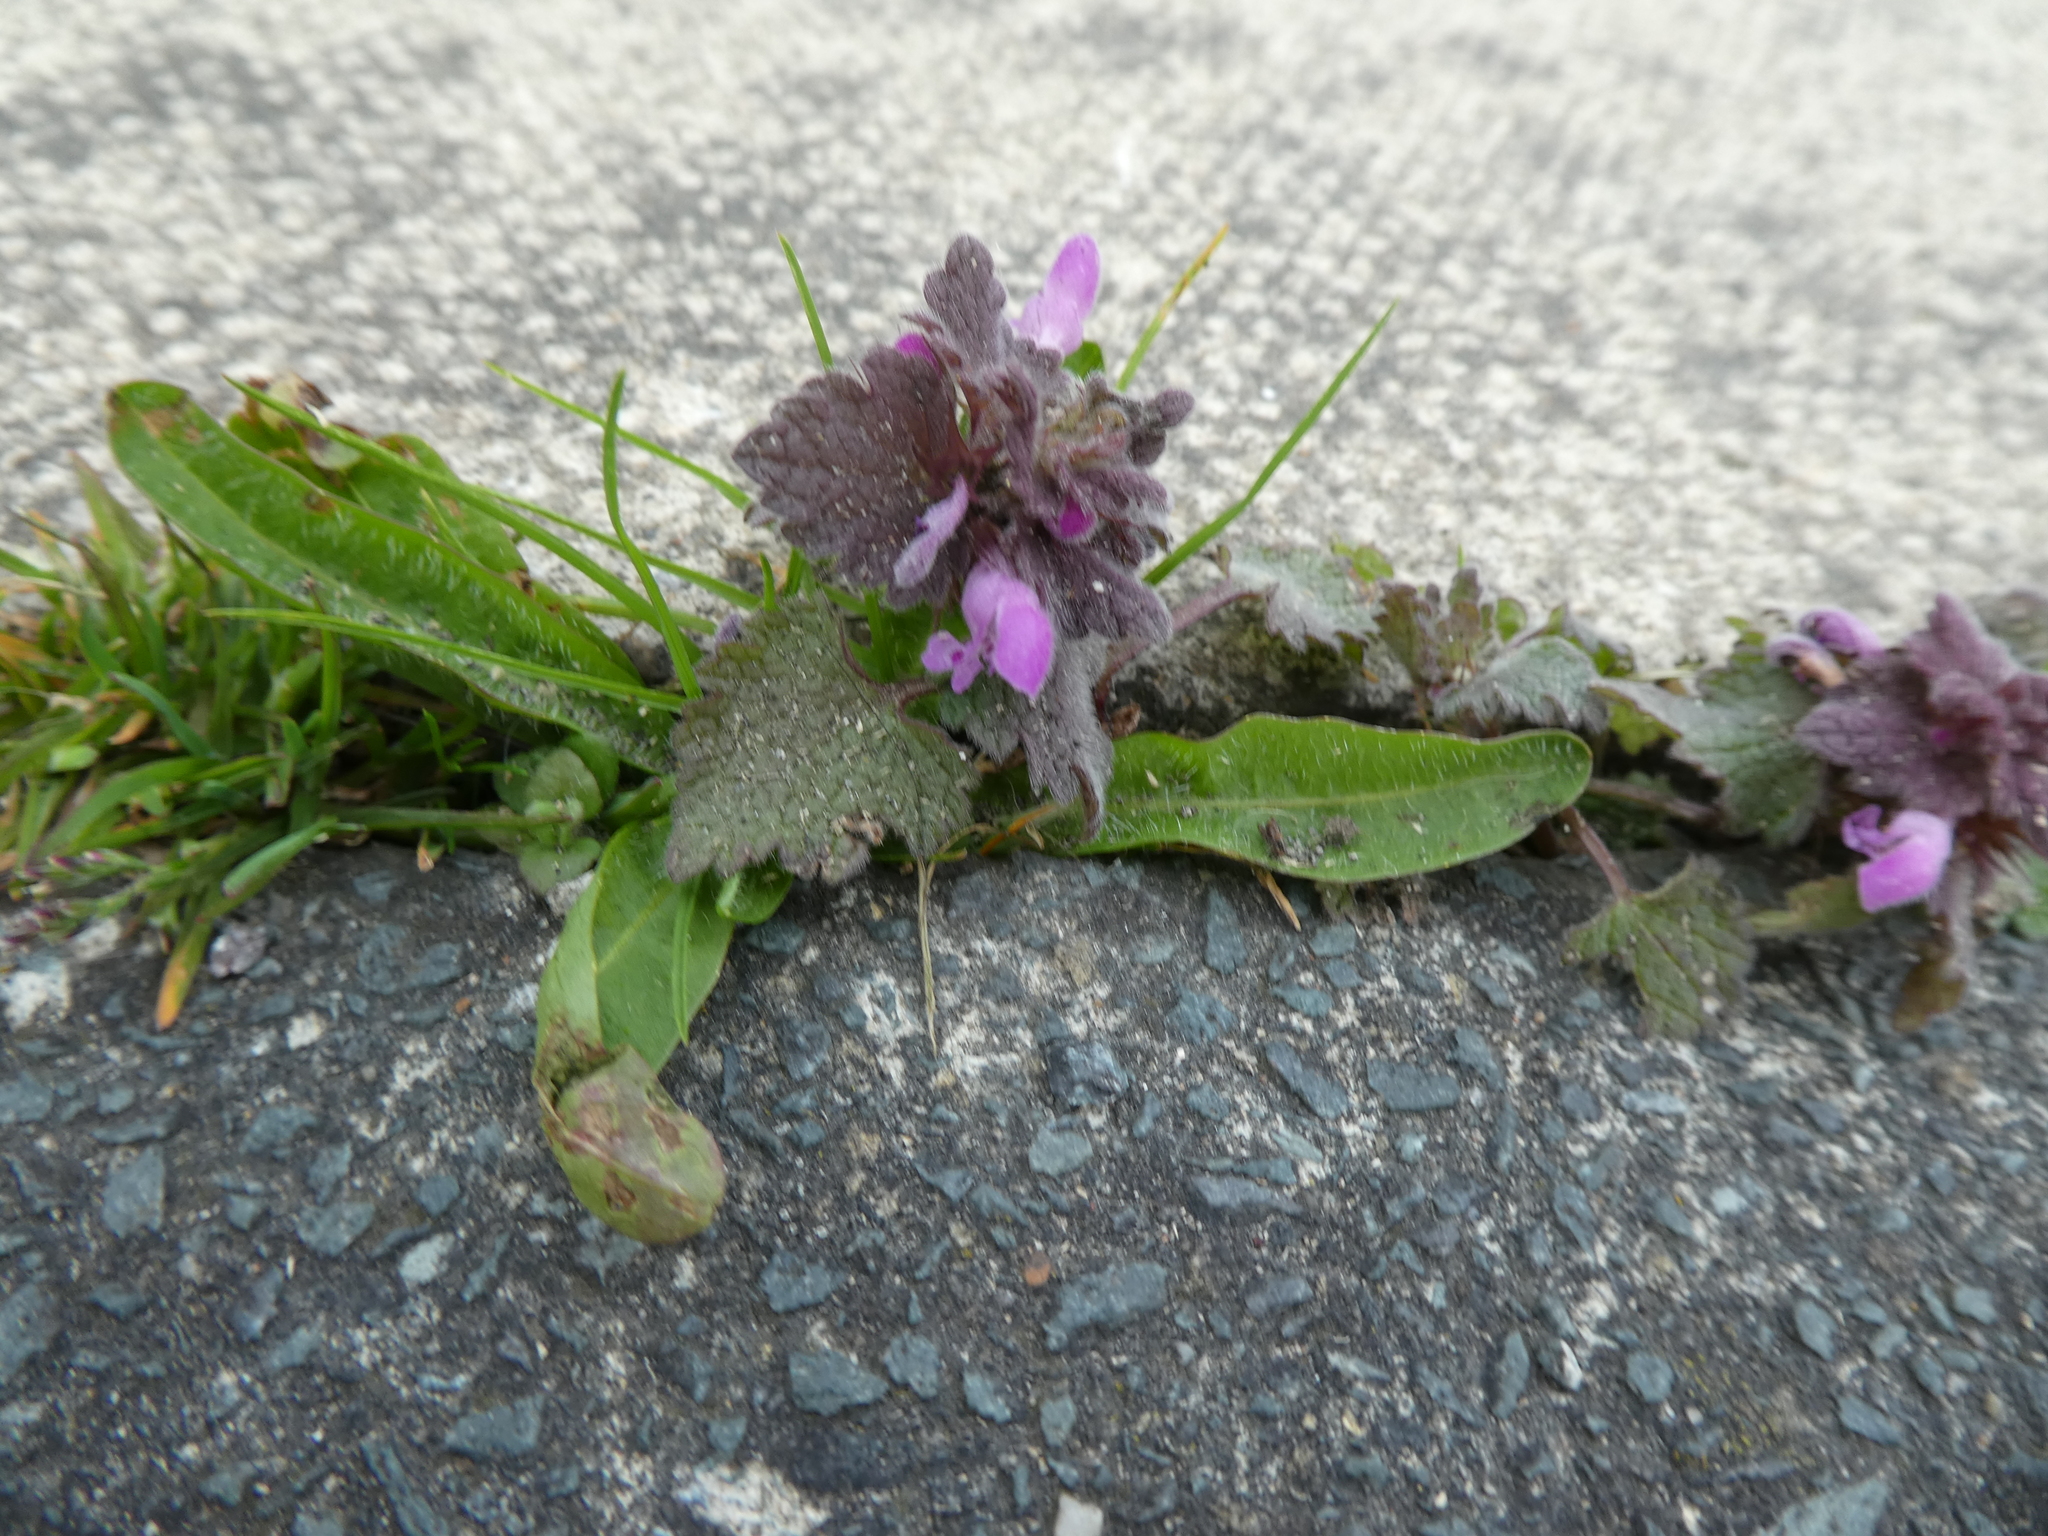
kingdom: Plantae
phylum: Tracheophyta
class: Magnoliopsida
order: Lamiales
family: Lamiaceae
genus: Lamium
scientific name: Lamium purpureum
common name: Red dead-nettle
